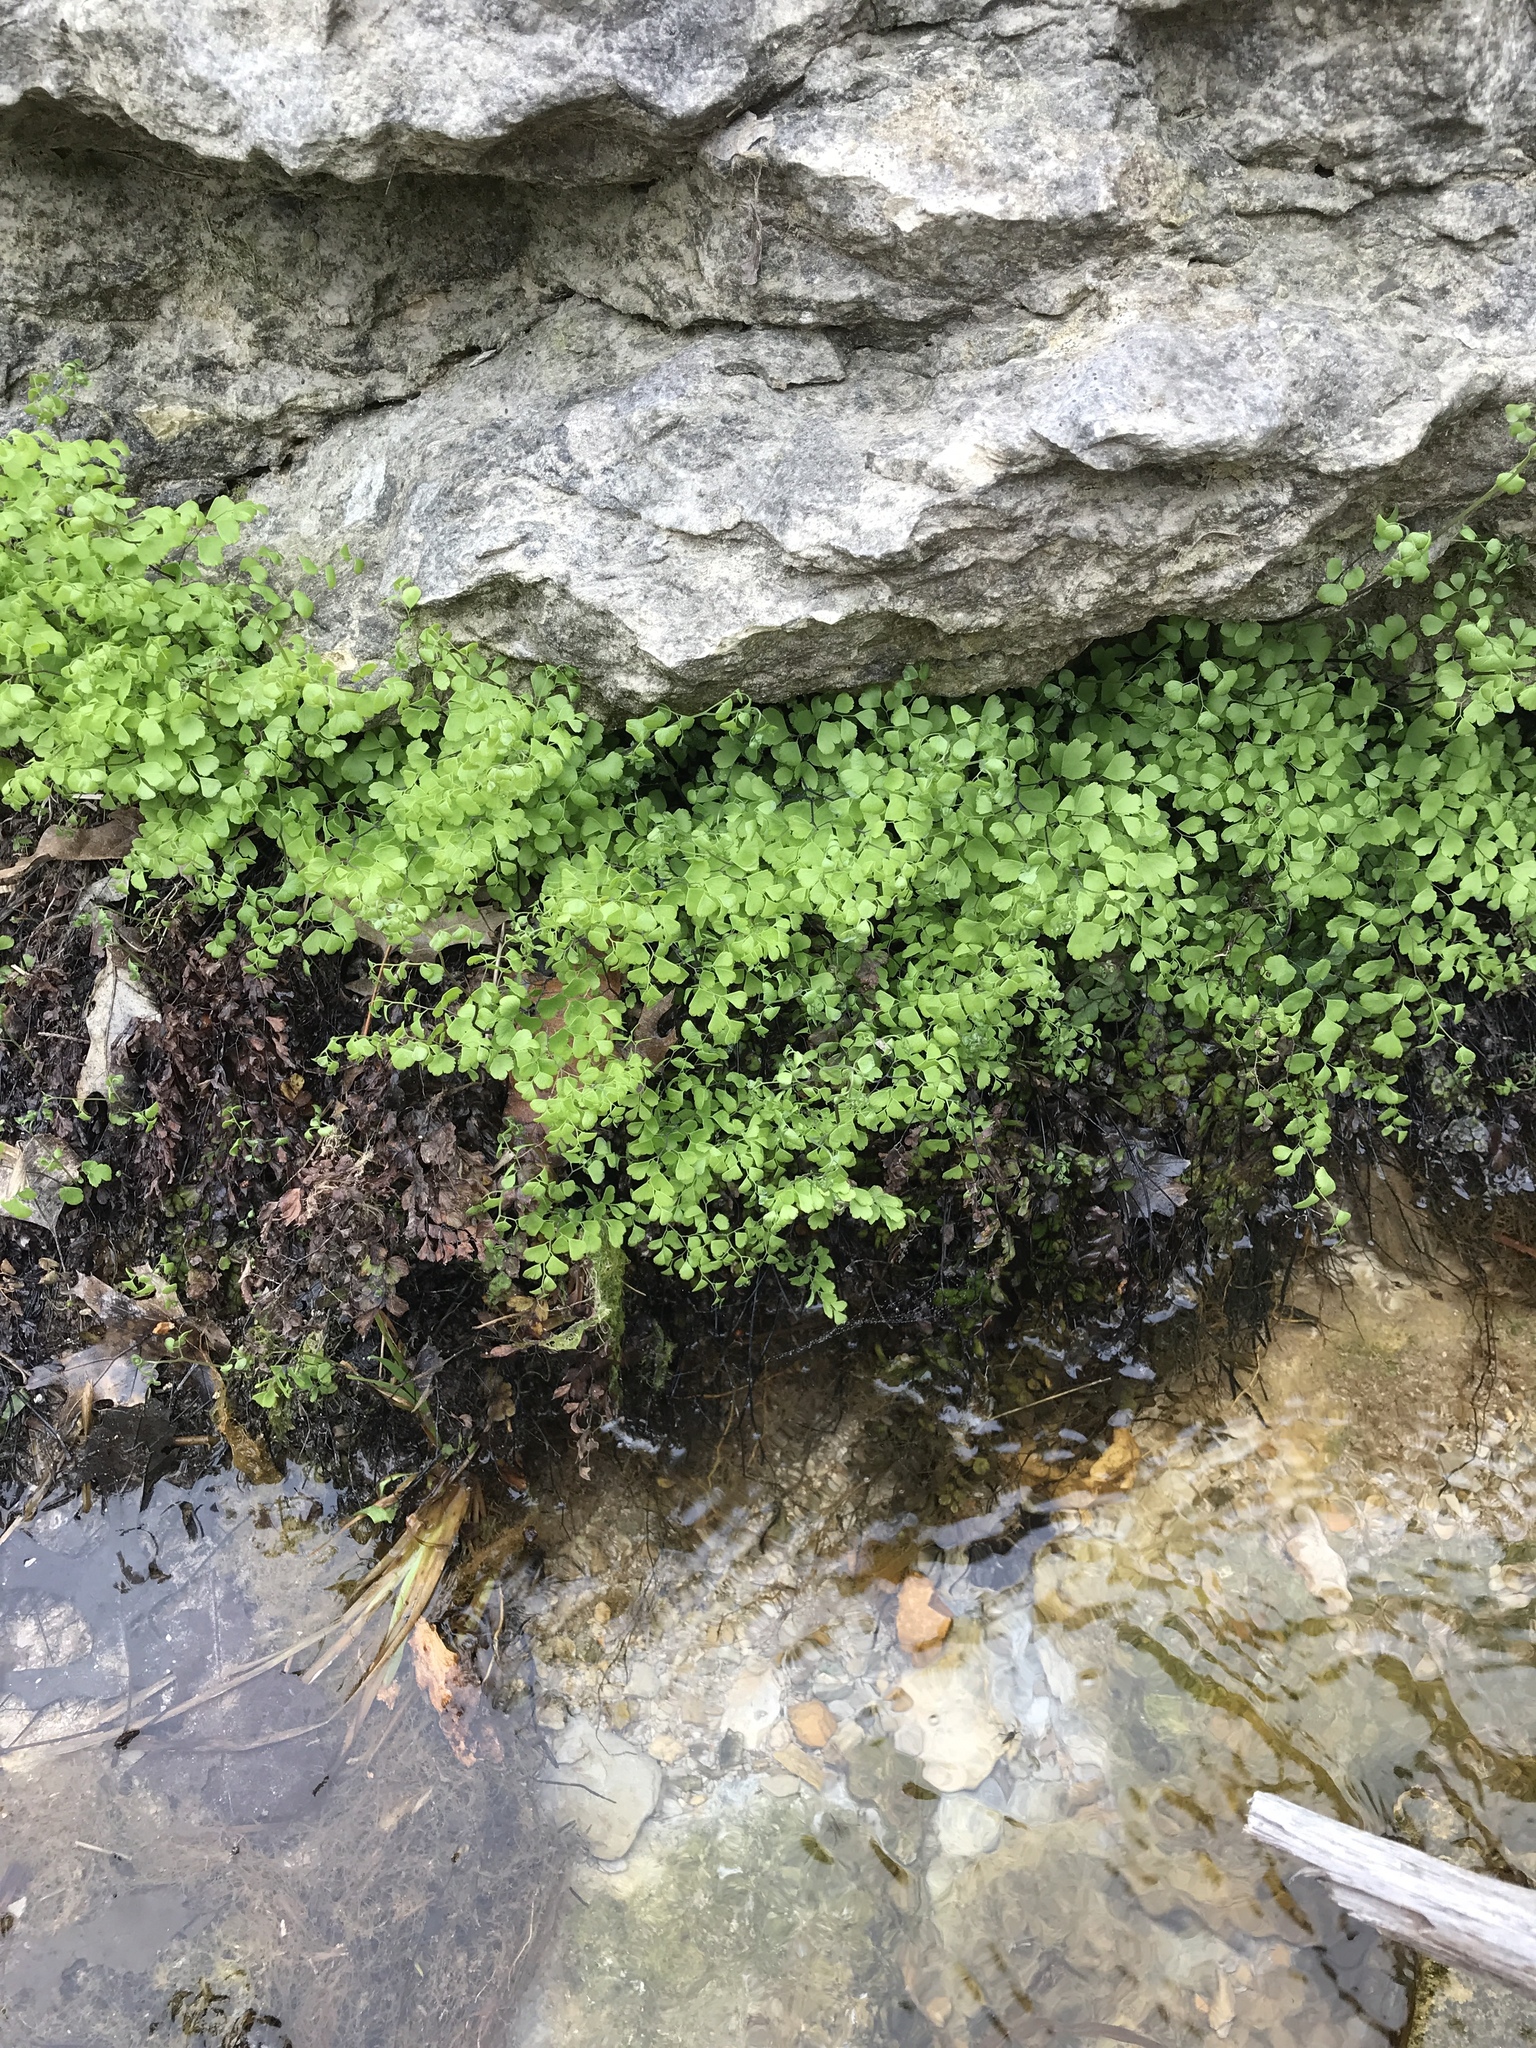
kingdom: Plantae
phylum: Tracheophyta
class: Polypodiopsida
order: Polypodiales
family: Pteridaceae
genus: Adiantum
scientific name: Adiantum capillus-veneris
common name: Maidenhair fern
